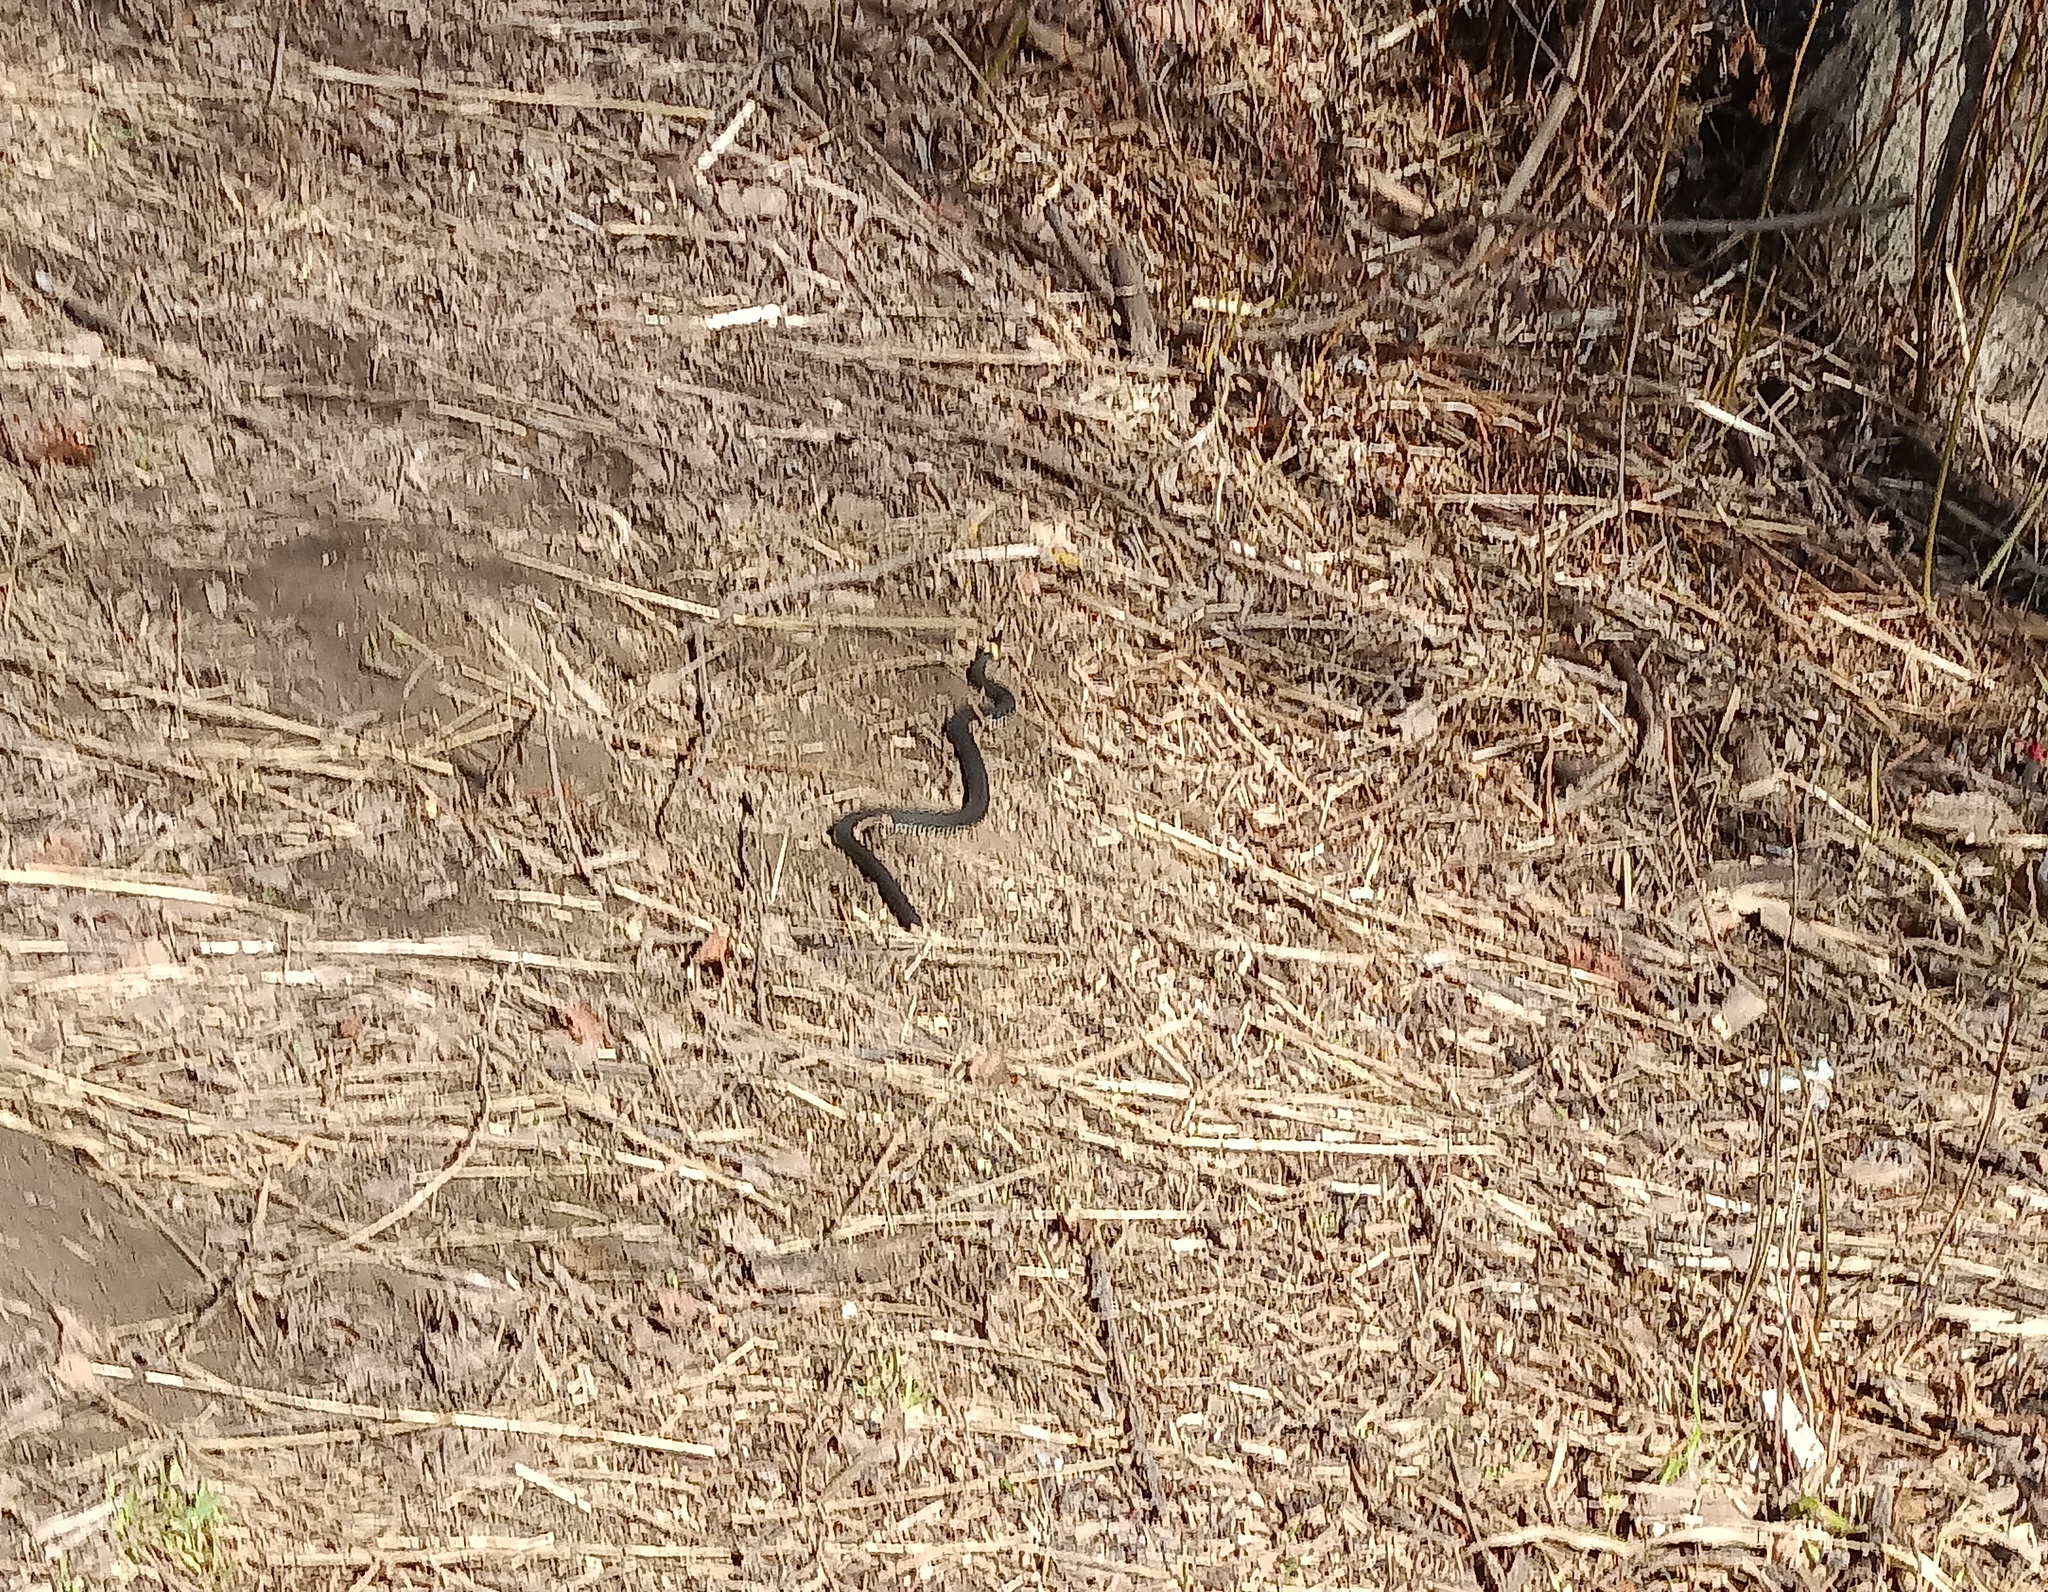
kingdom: Animalia
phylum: Chordata
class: Squamata
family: Colubridae
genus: Natrix
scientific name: Natrix natrix
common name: Grass snake
